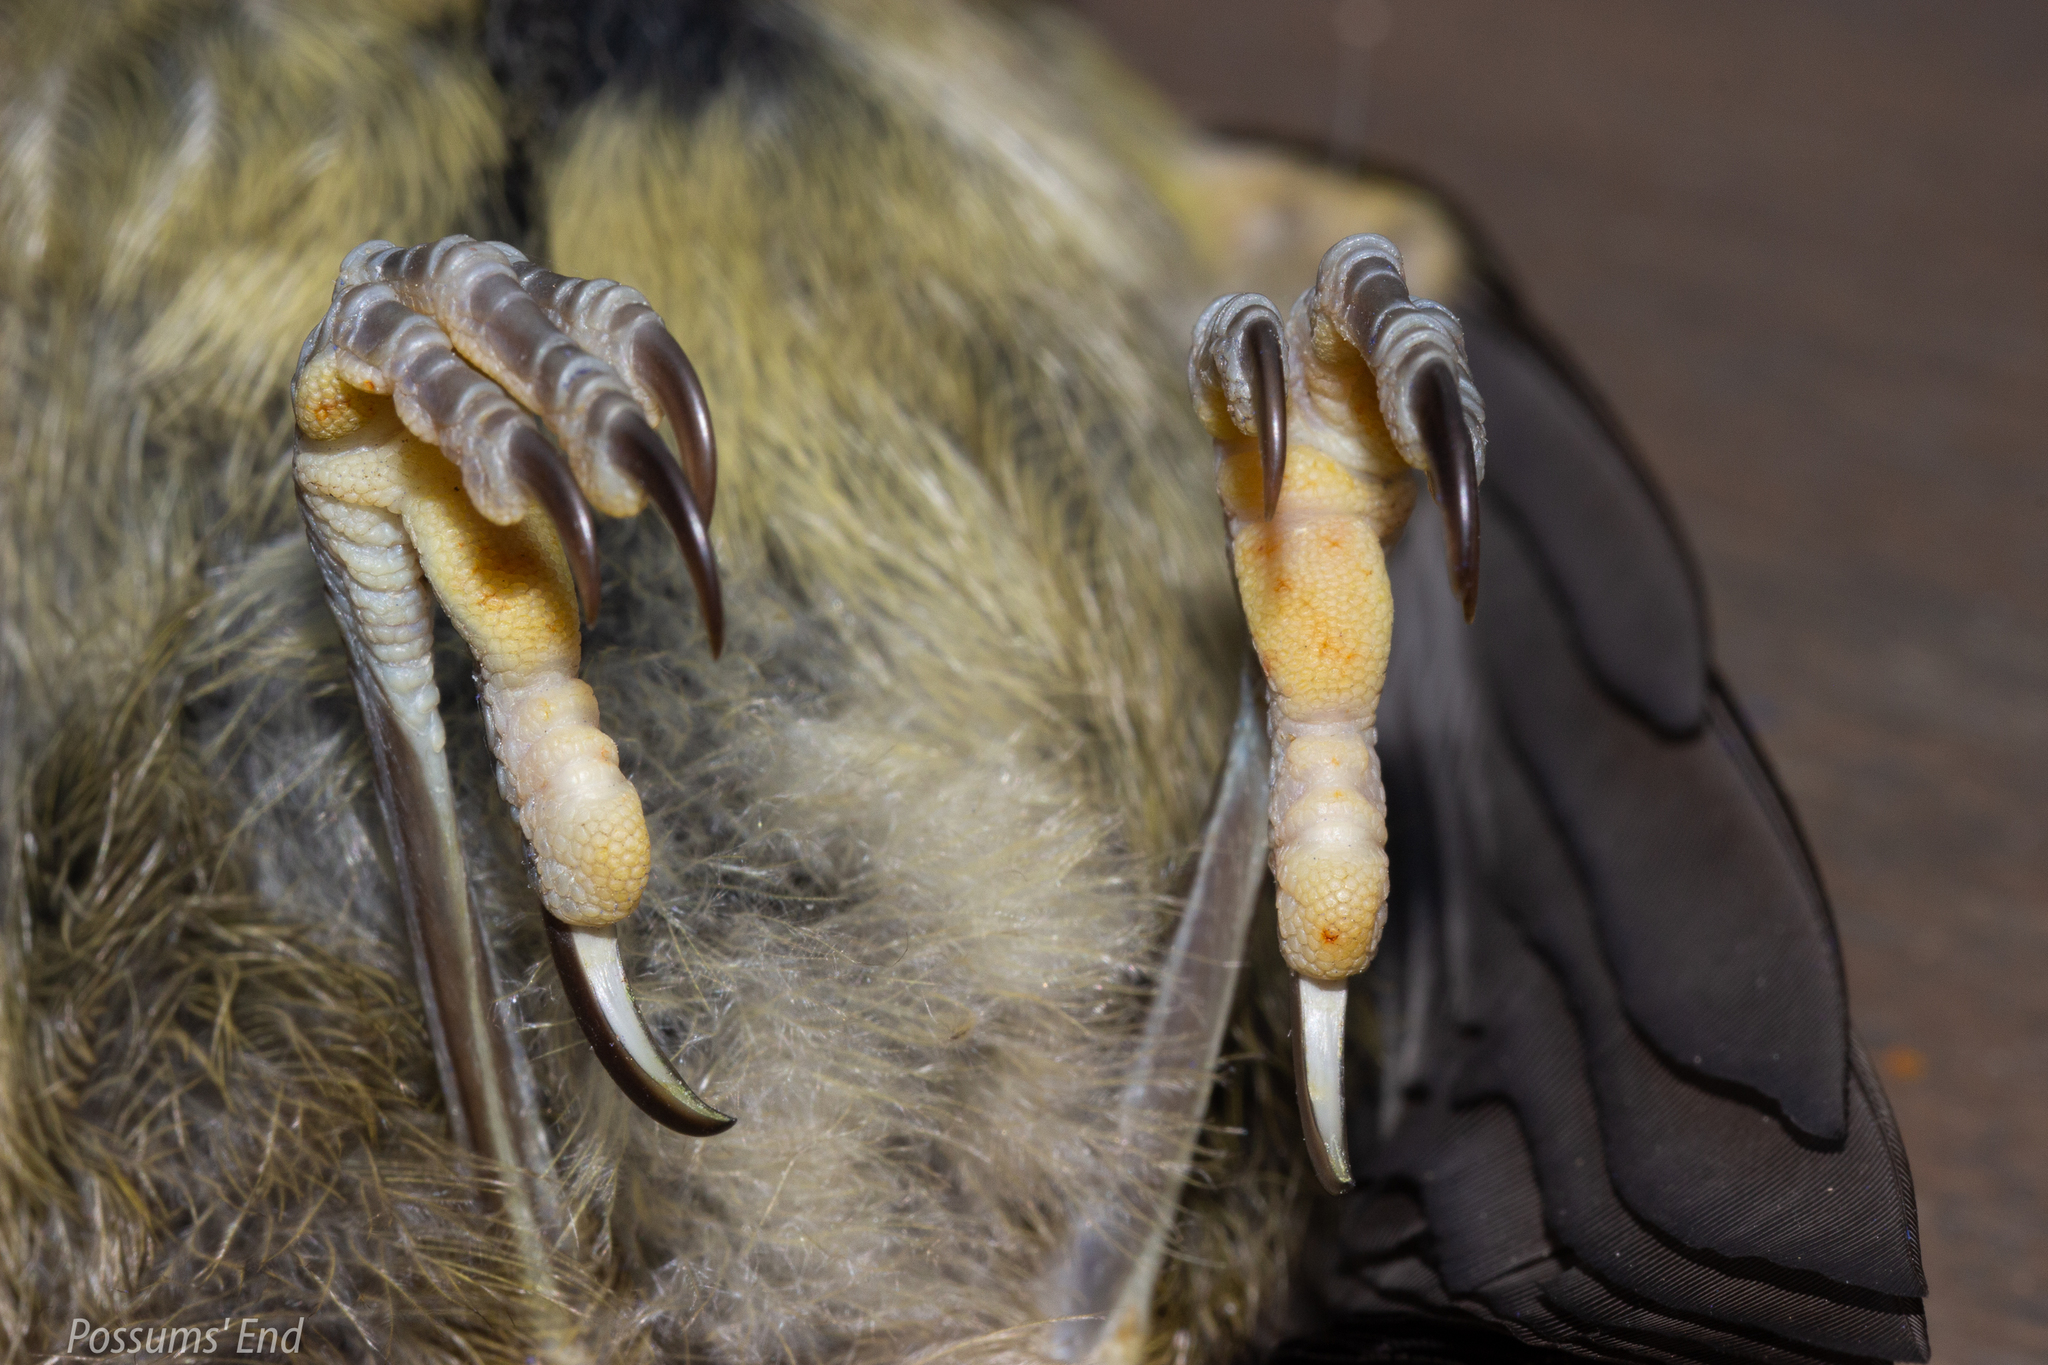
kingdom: Animalia
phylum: Chordata
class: Aves
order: Passeriformes
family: Meliphagidae
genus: Anthornis
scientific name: Anthornis melanura
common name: New zealand bellbird
